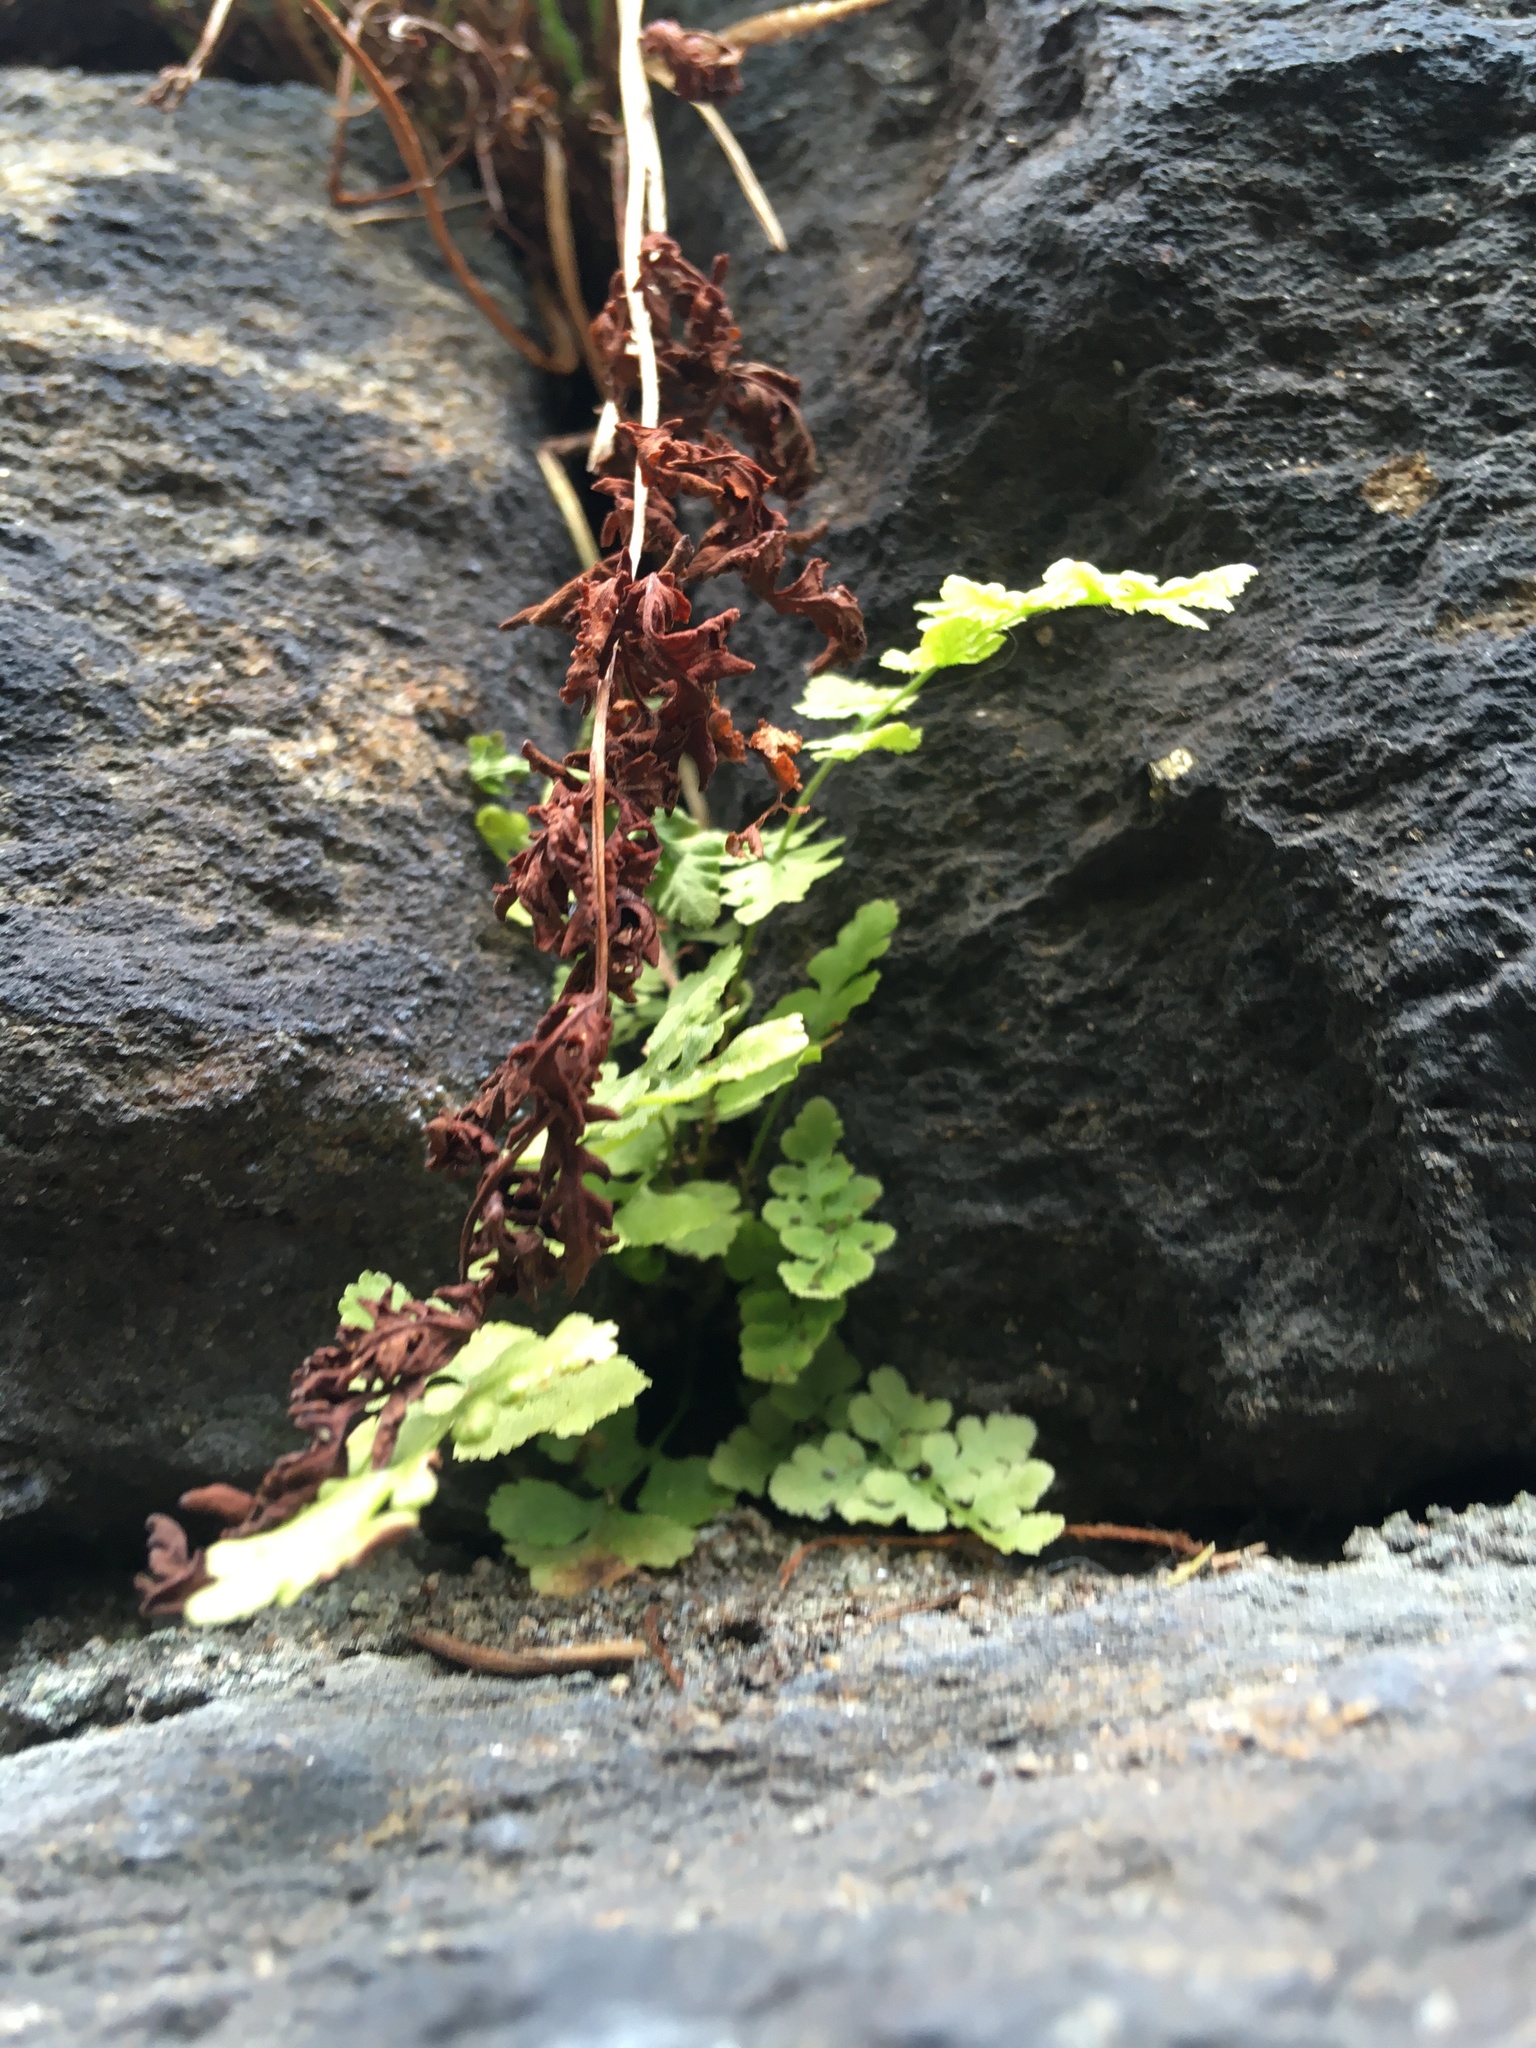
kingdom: Plantae
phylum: Tracheophyta
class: Polypodiopsida
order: Polypodiales
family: Woodsiaceae
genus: Physematium
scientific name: Physematium obtusum
